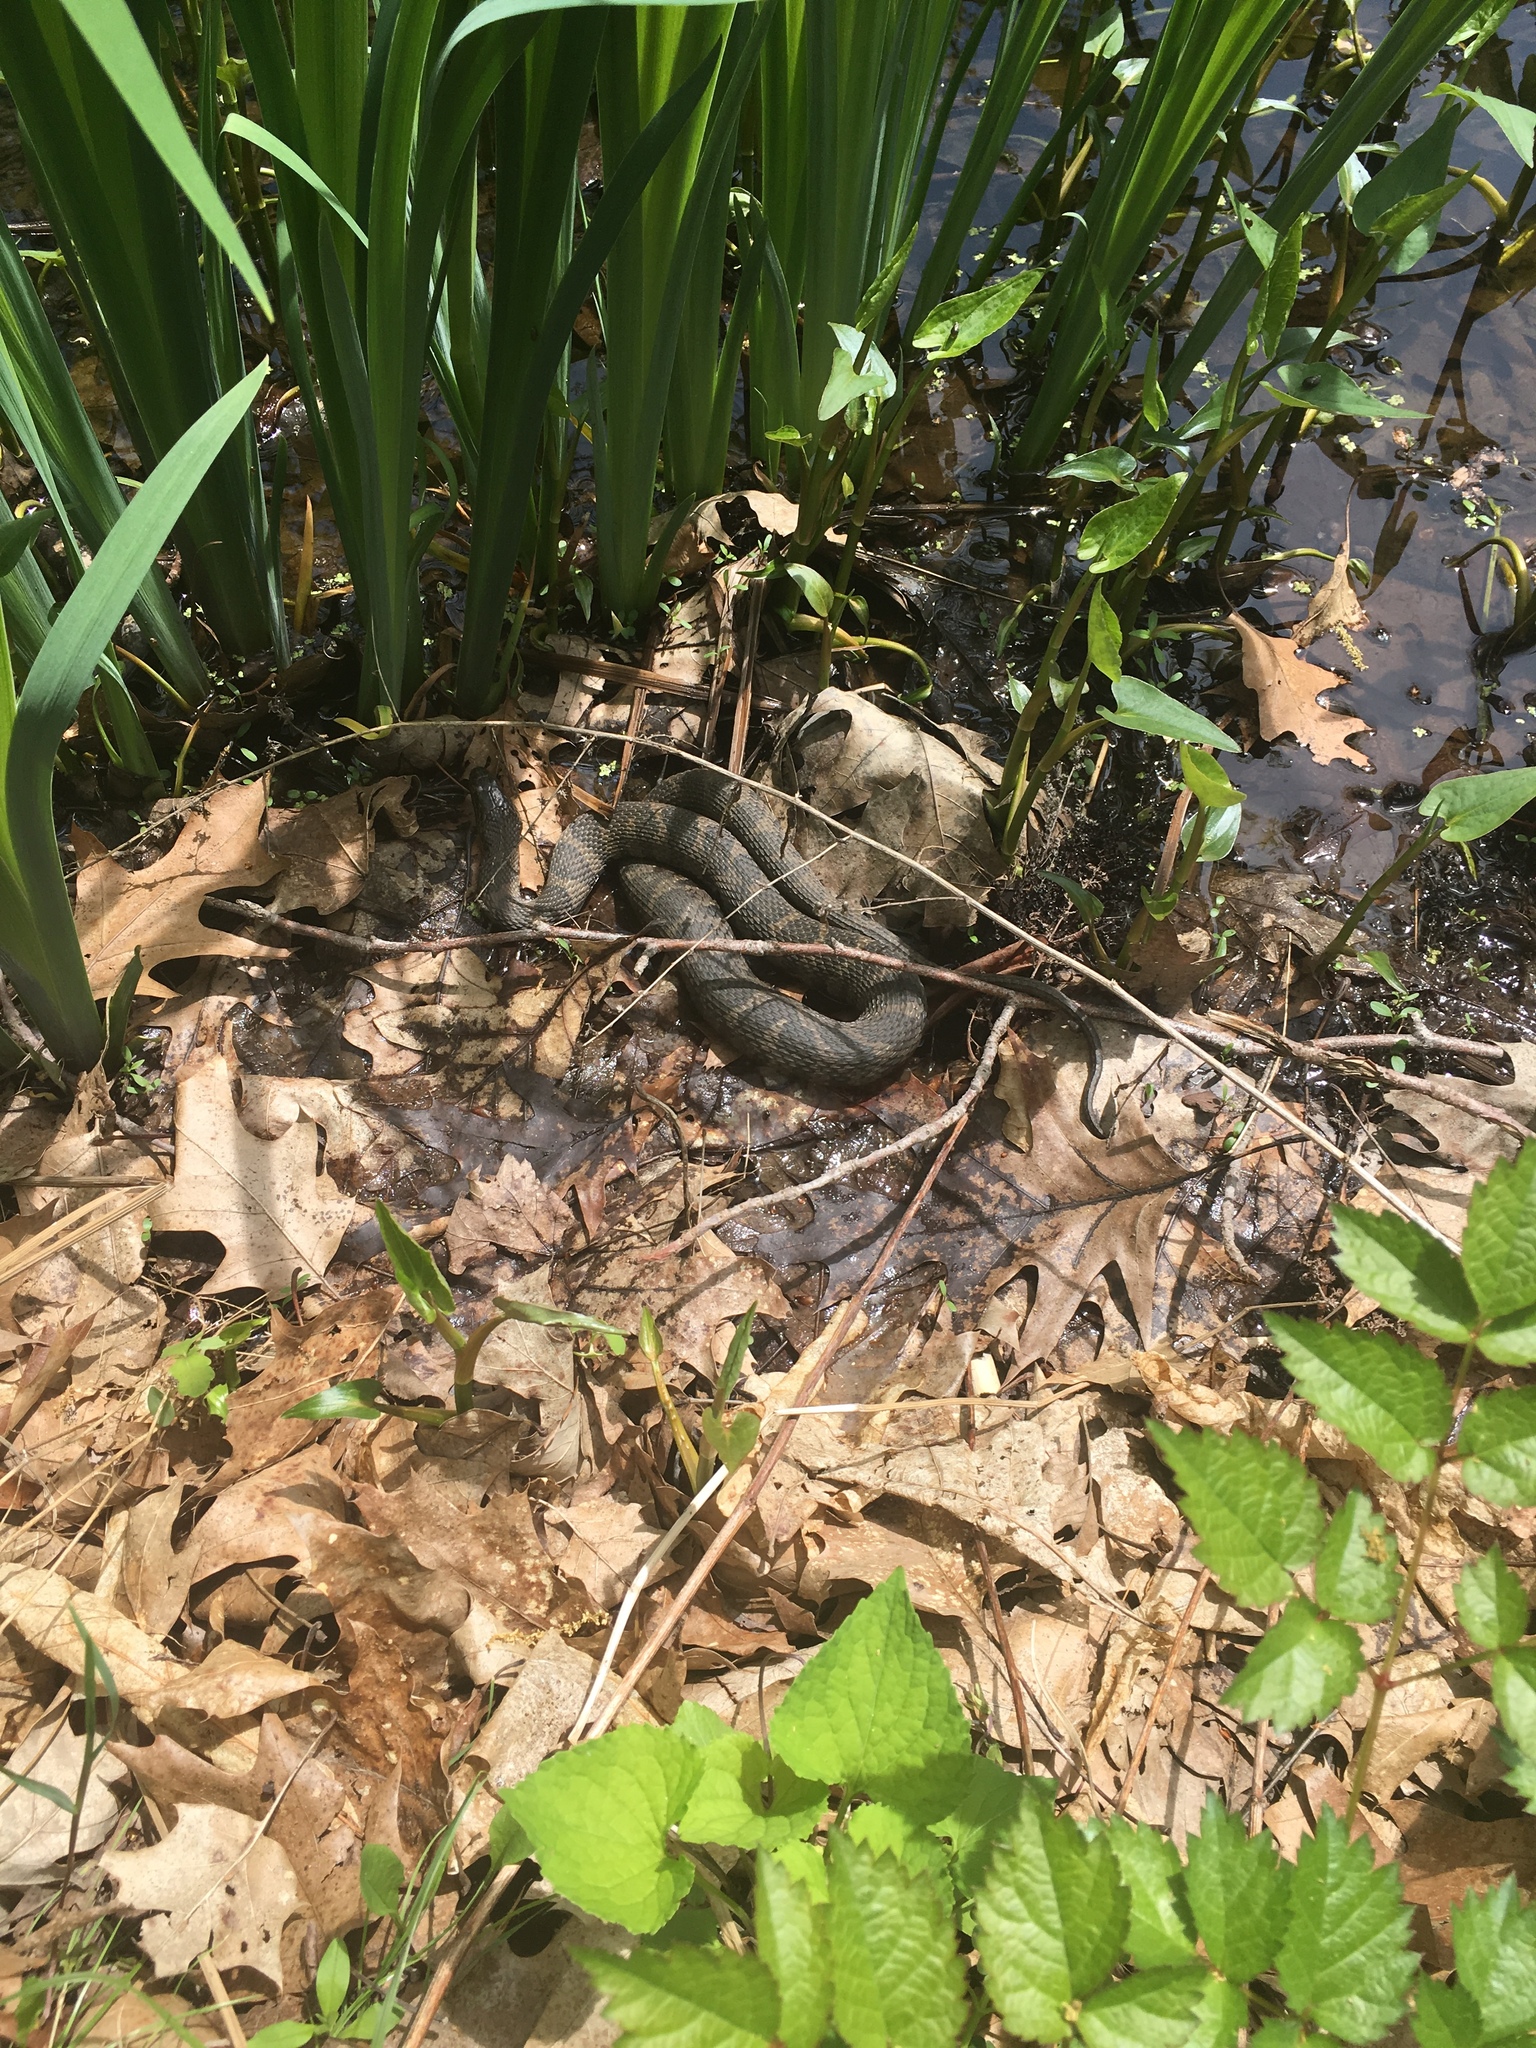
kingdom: Animalia
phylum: Chordata
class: Squamata
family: Colubridae
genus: Nerodia
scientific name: Nerodia sipedon
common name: Northern water snake
